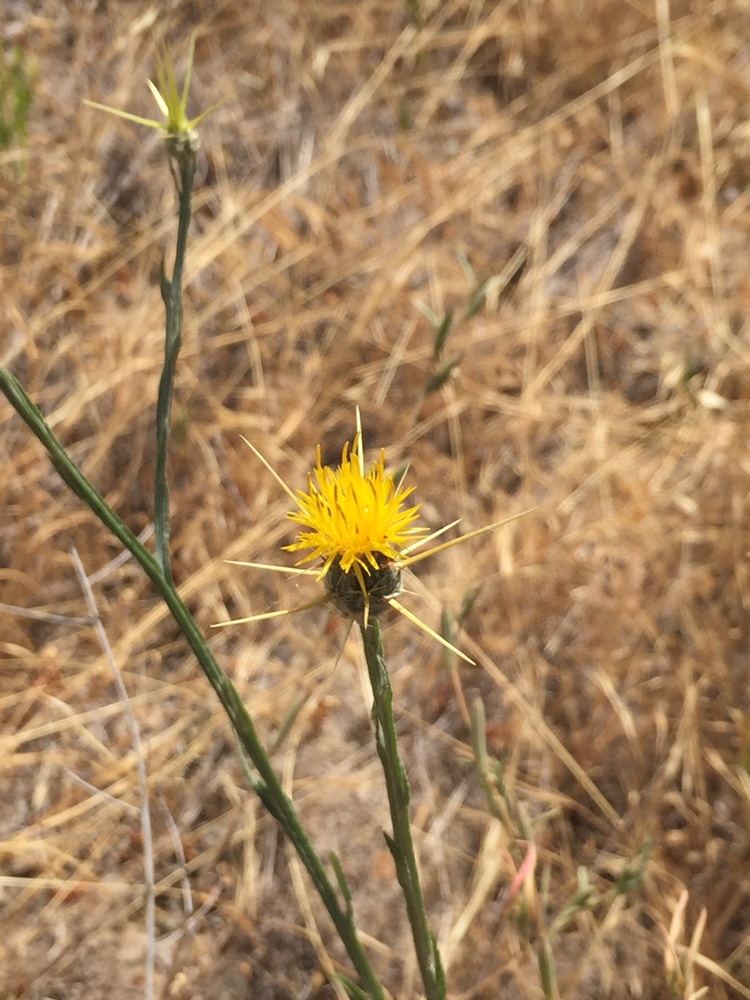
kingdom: Plantae
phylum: Tracheophyta
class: Magnoliopsida
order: Asterales
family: Asteraceae
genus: Centaurea
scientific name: Centaurea solstitialis
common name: Yellow star-thistle
